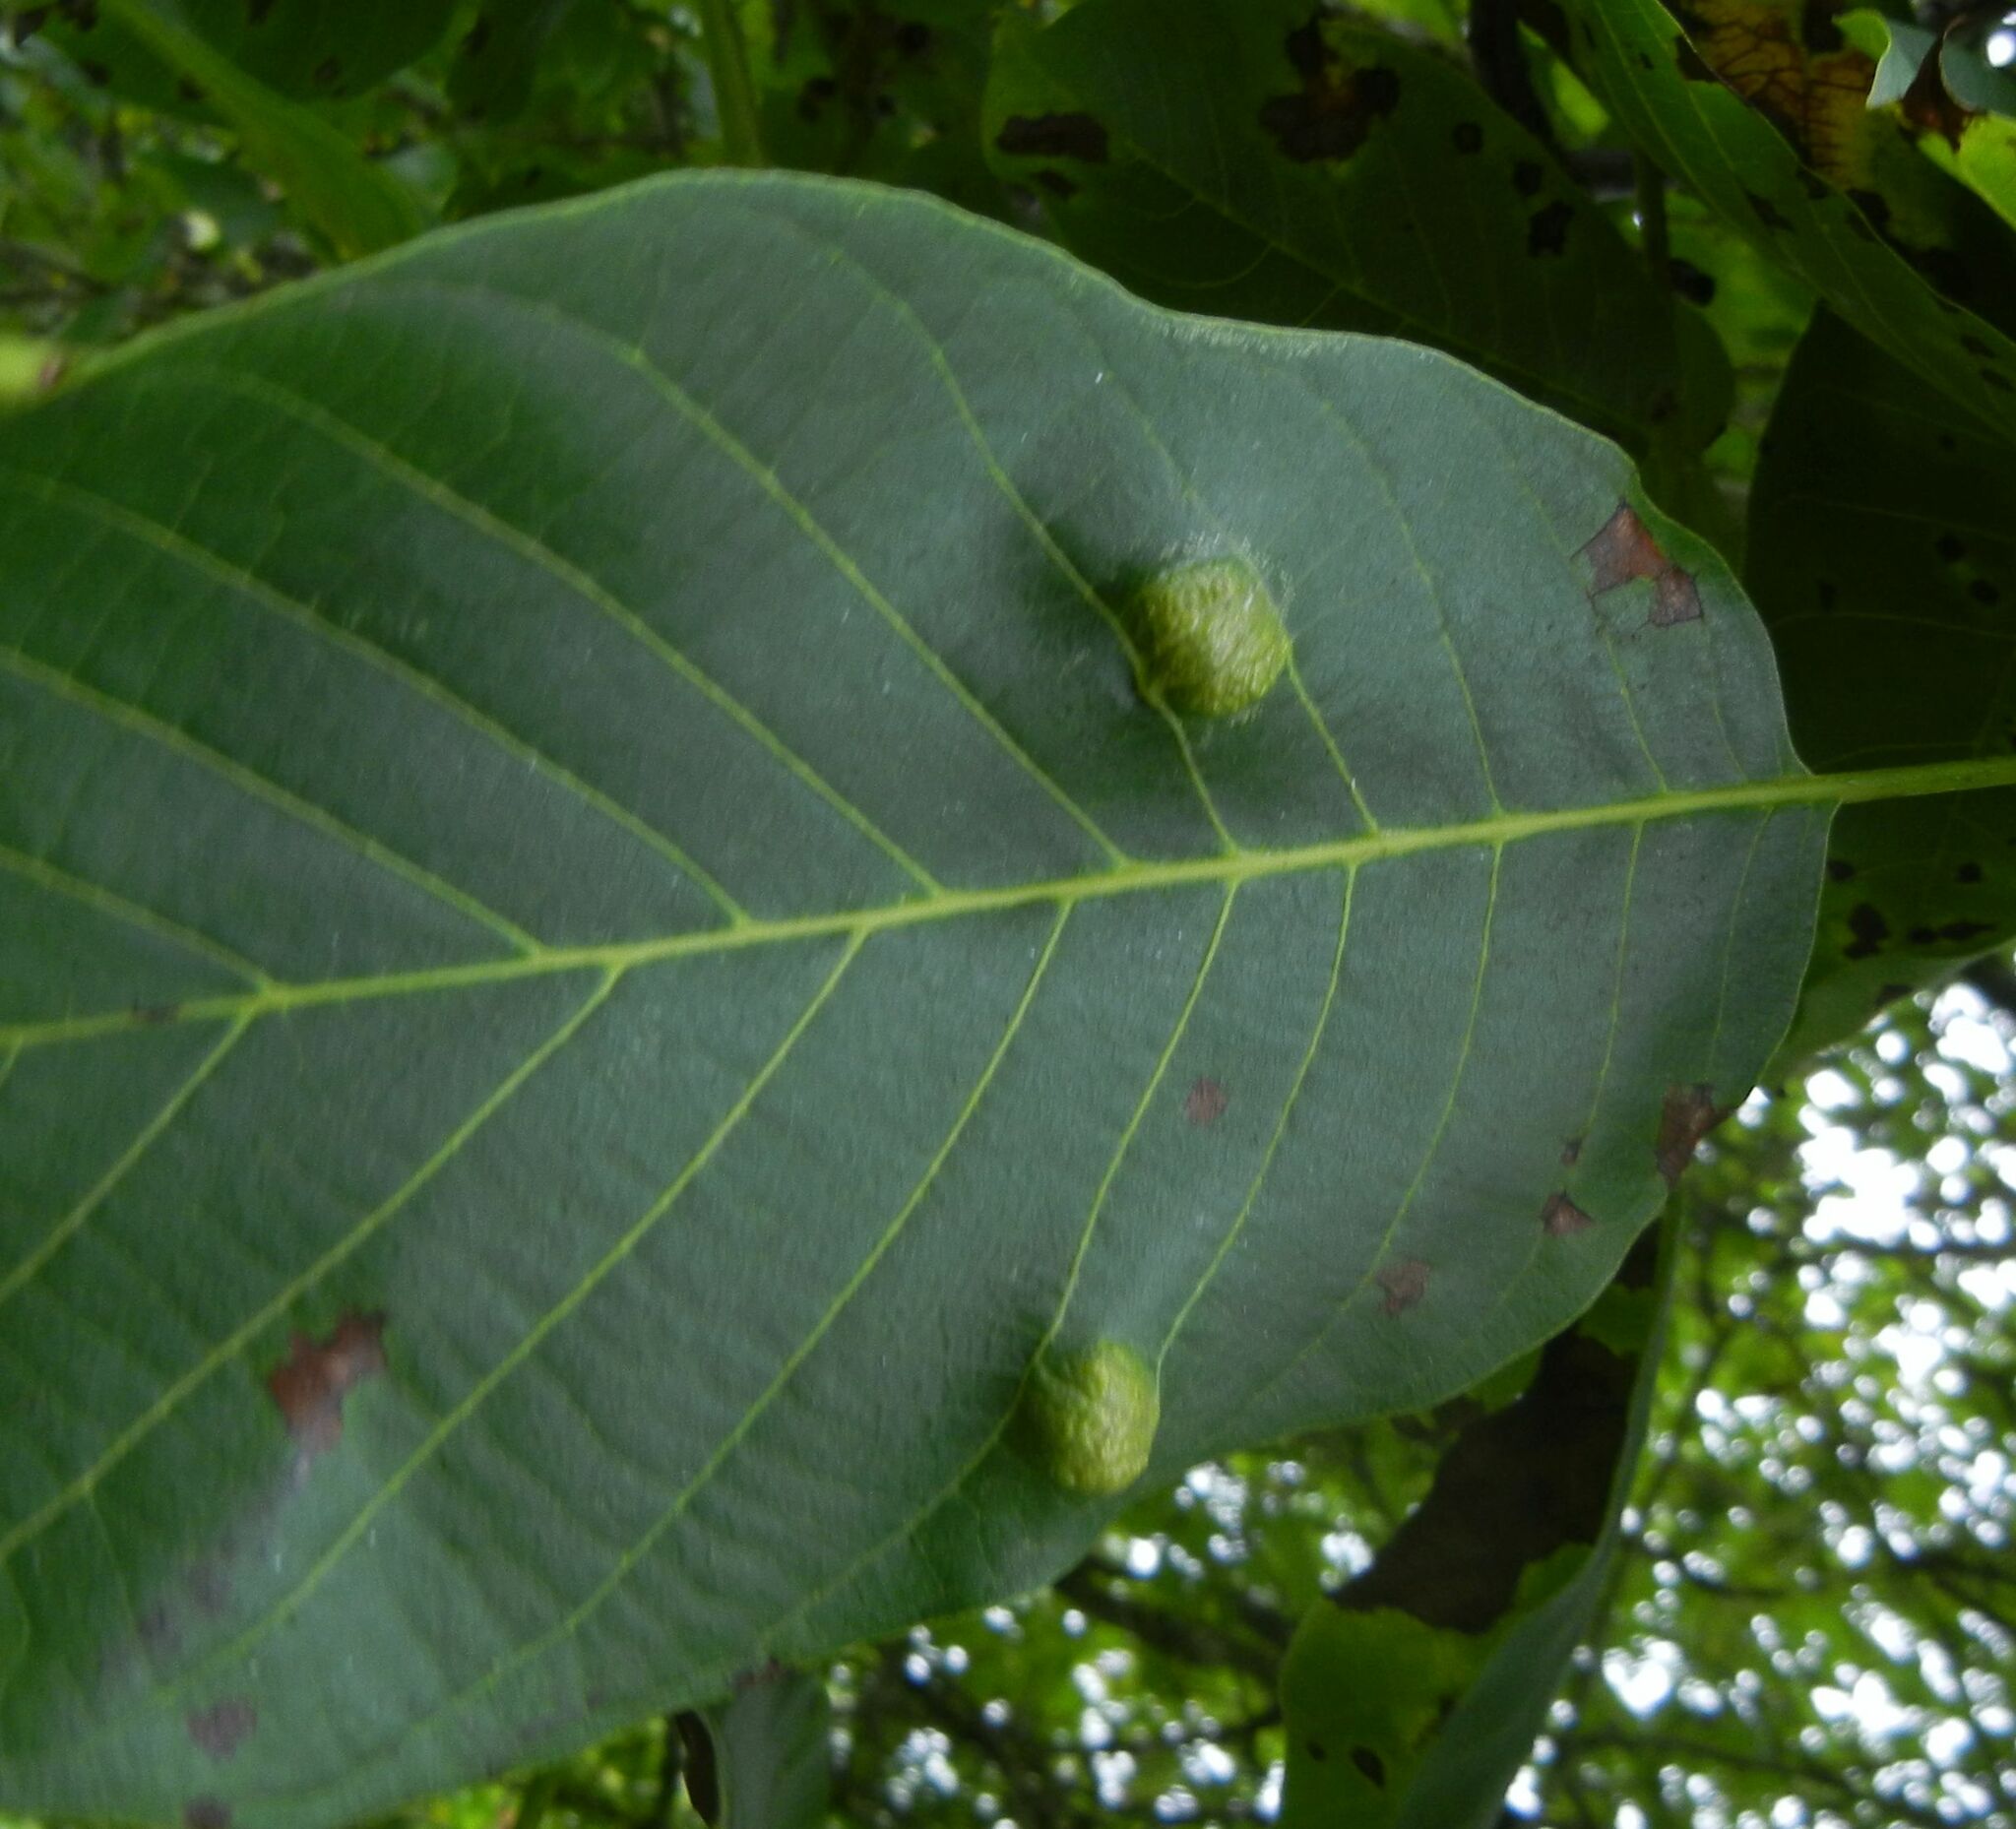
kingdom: Animalia
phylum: Arthropoda
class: Arachnida
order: Trombidiformes
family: Eriophyidae
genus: Aceria
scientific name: Aceria erinea
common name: Persian walnut erineum mite
